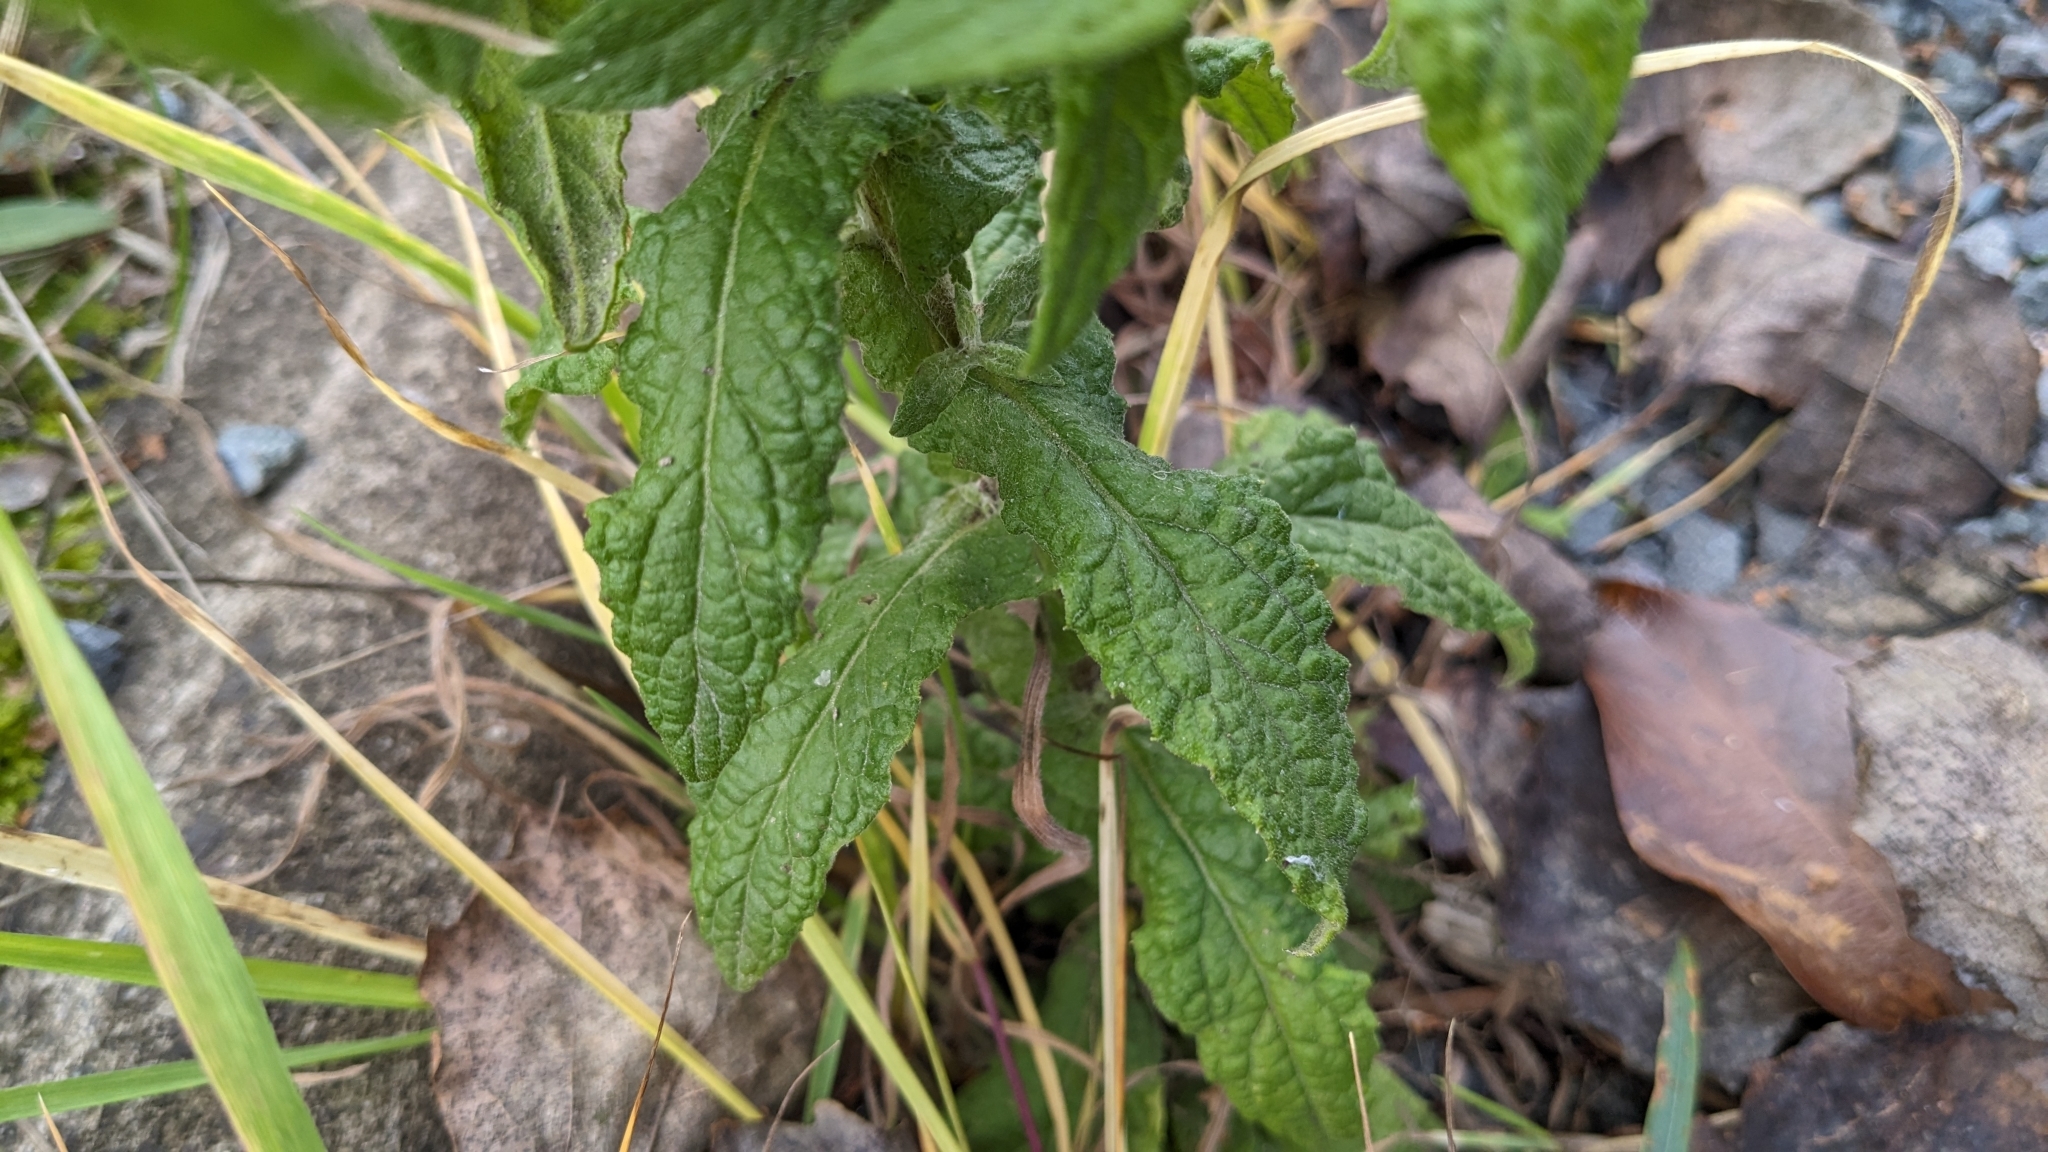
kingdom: Plantae
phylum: Tracheophyta
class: Magnoliopsida
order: Asterales
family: Asteraceae
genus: Pulicaria
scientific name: Pulicaria dysenterica
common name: Common fleabane
